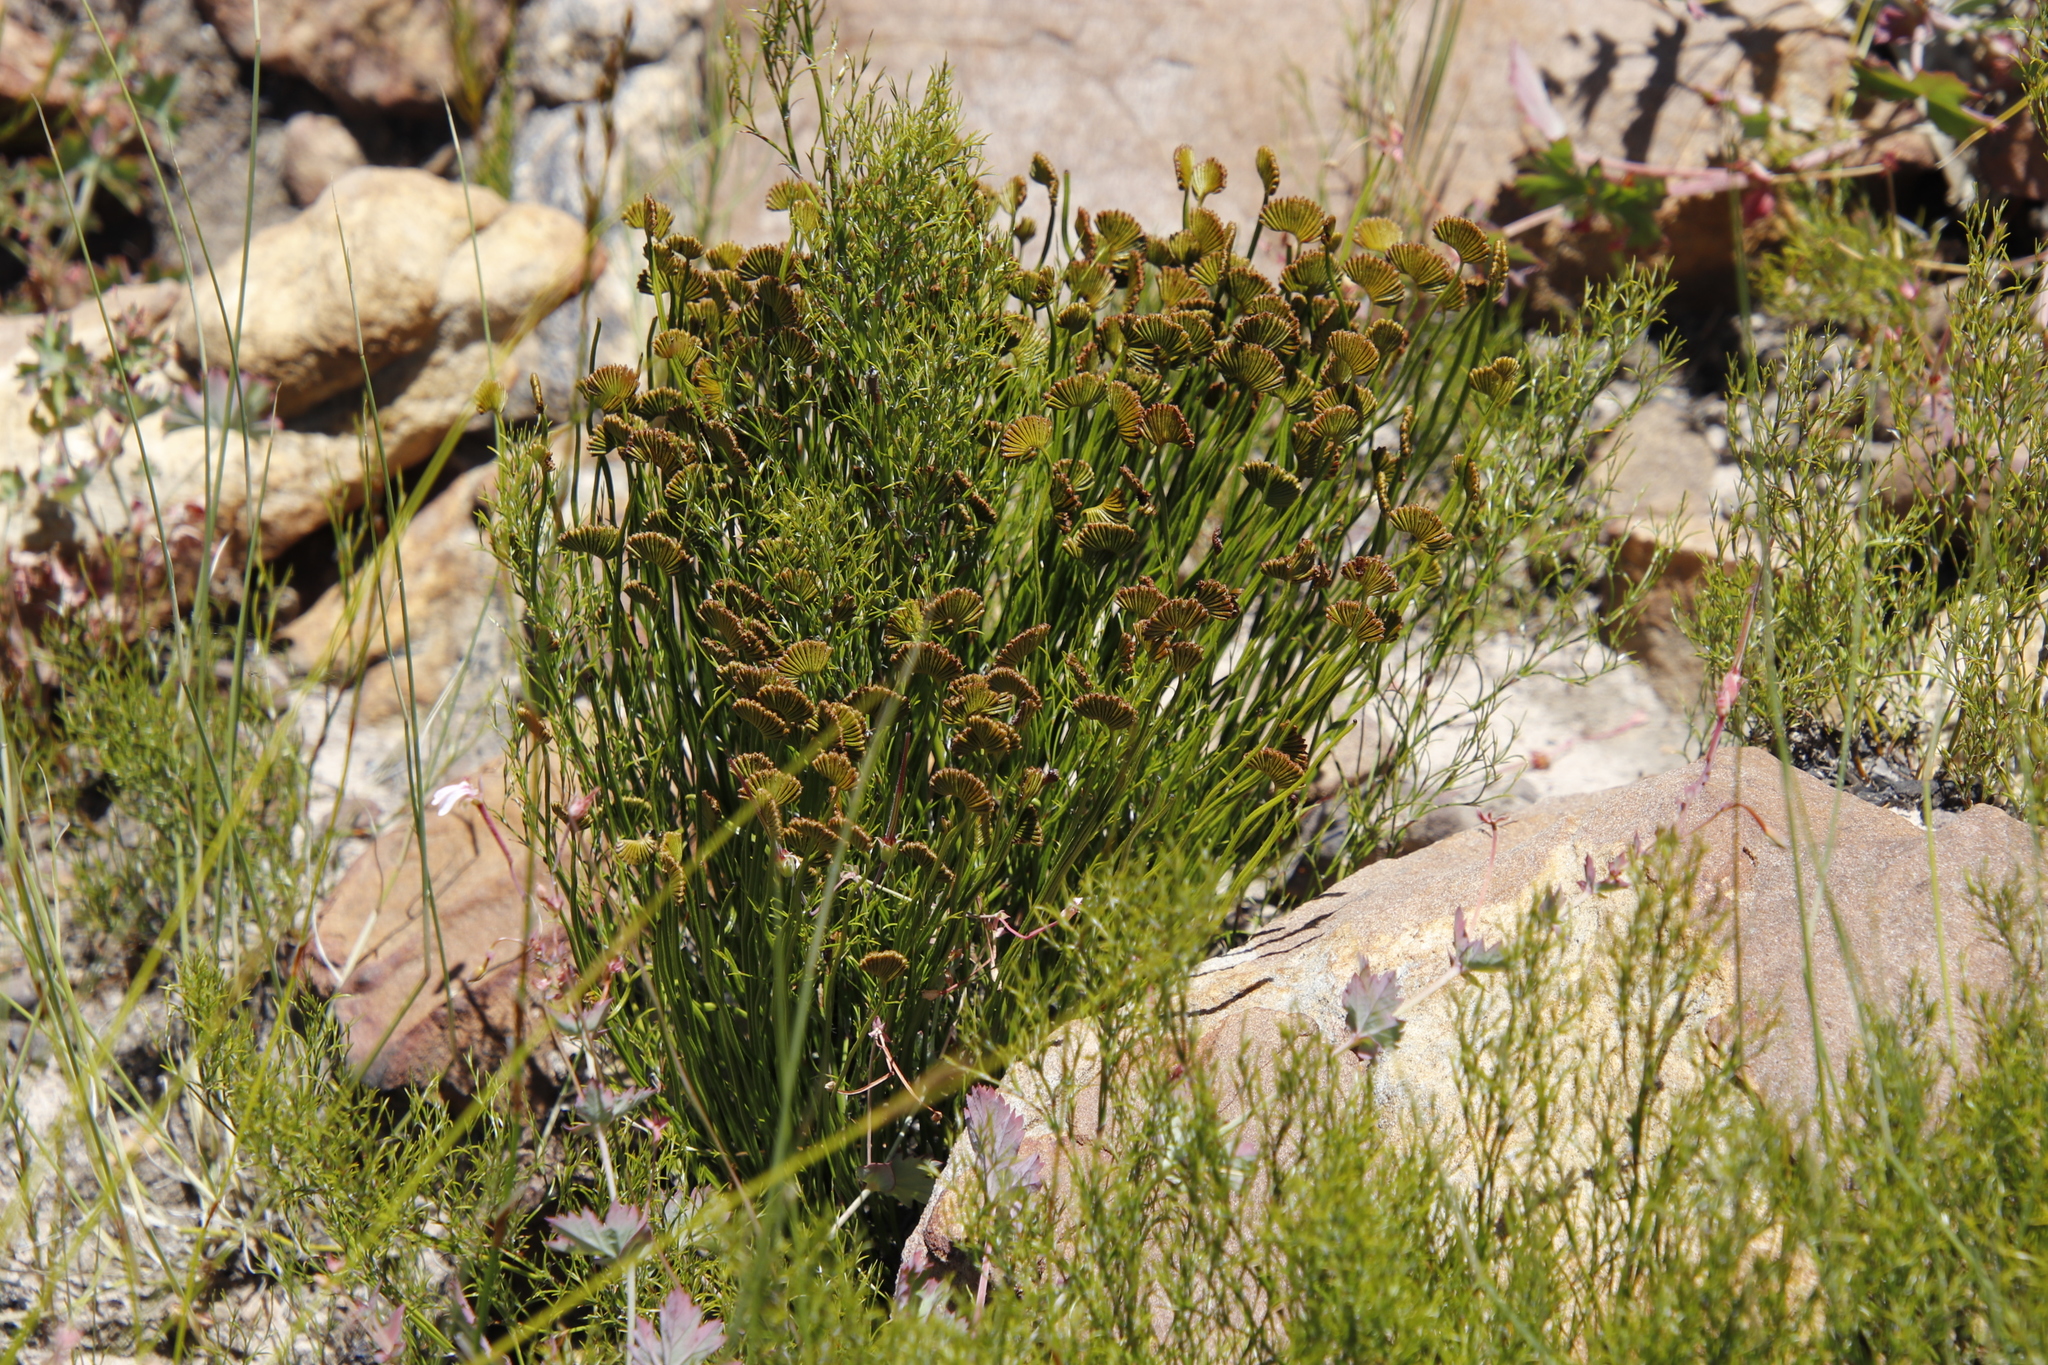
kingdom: Plantae
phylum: Tracheophyta
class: Polypodiopsida
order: Schizaeales
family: Schizaeaceae
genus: Schizaea
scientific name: Schizaea pectinata
